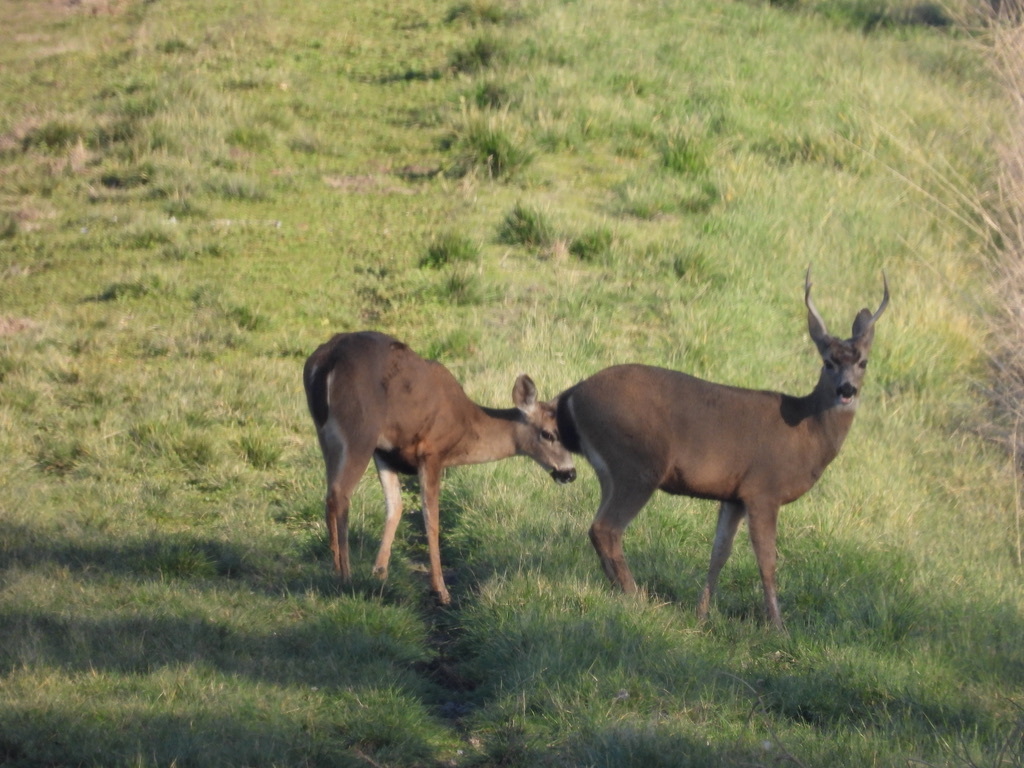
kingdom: Animalia
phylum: Chordata
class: Mammalia
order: Artiodactyla
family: Cervidae
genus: Odocoileus
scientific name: Odocoileus hemionus
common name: Mule deer
